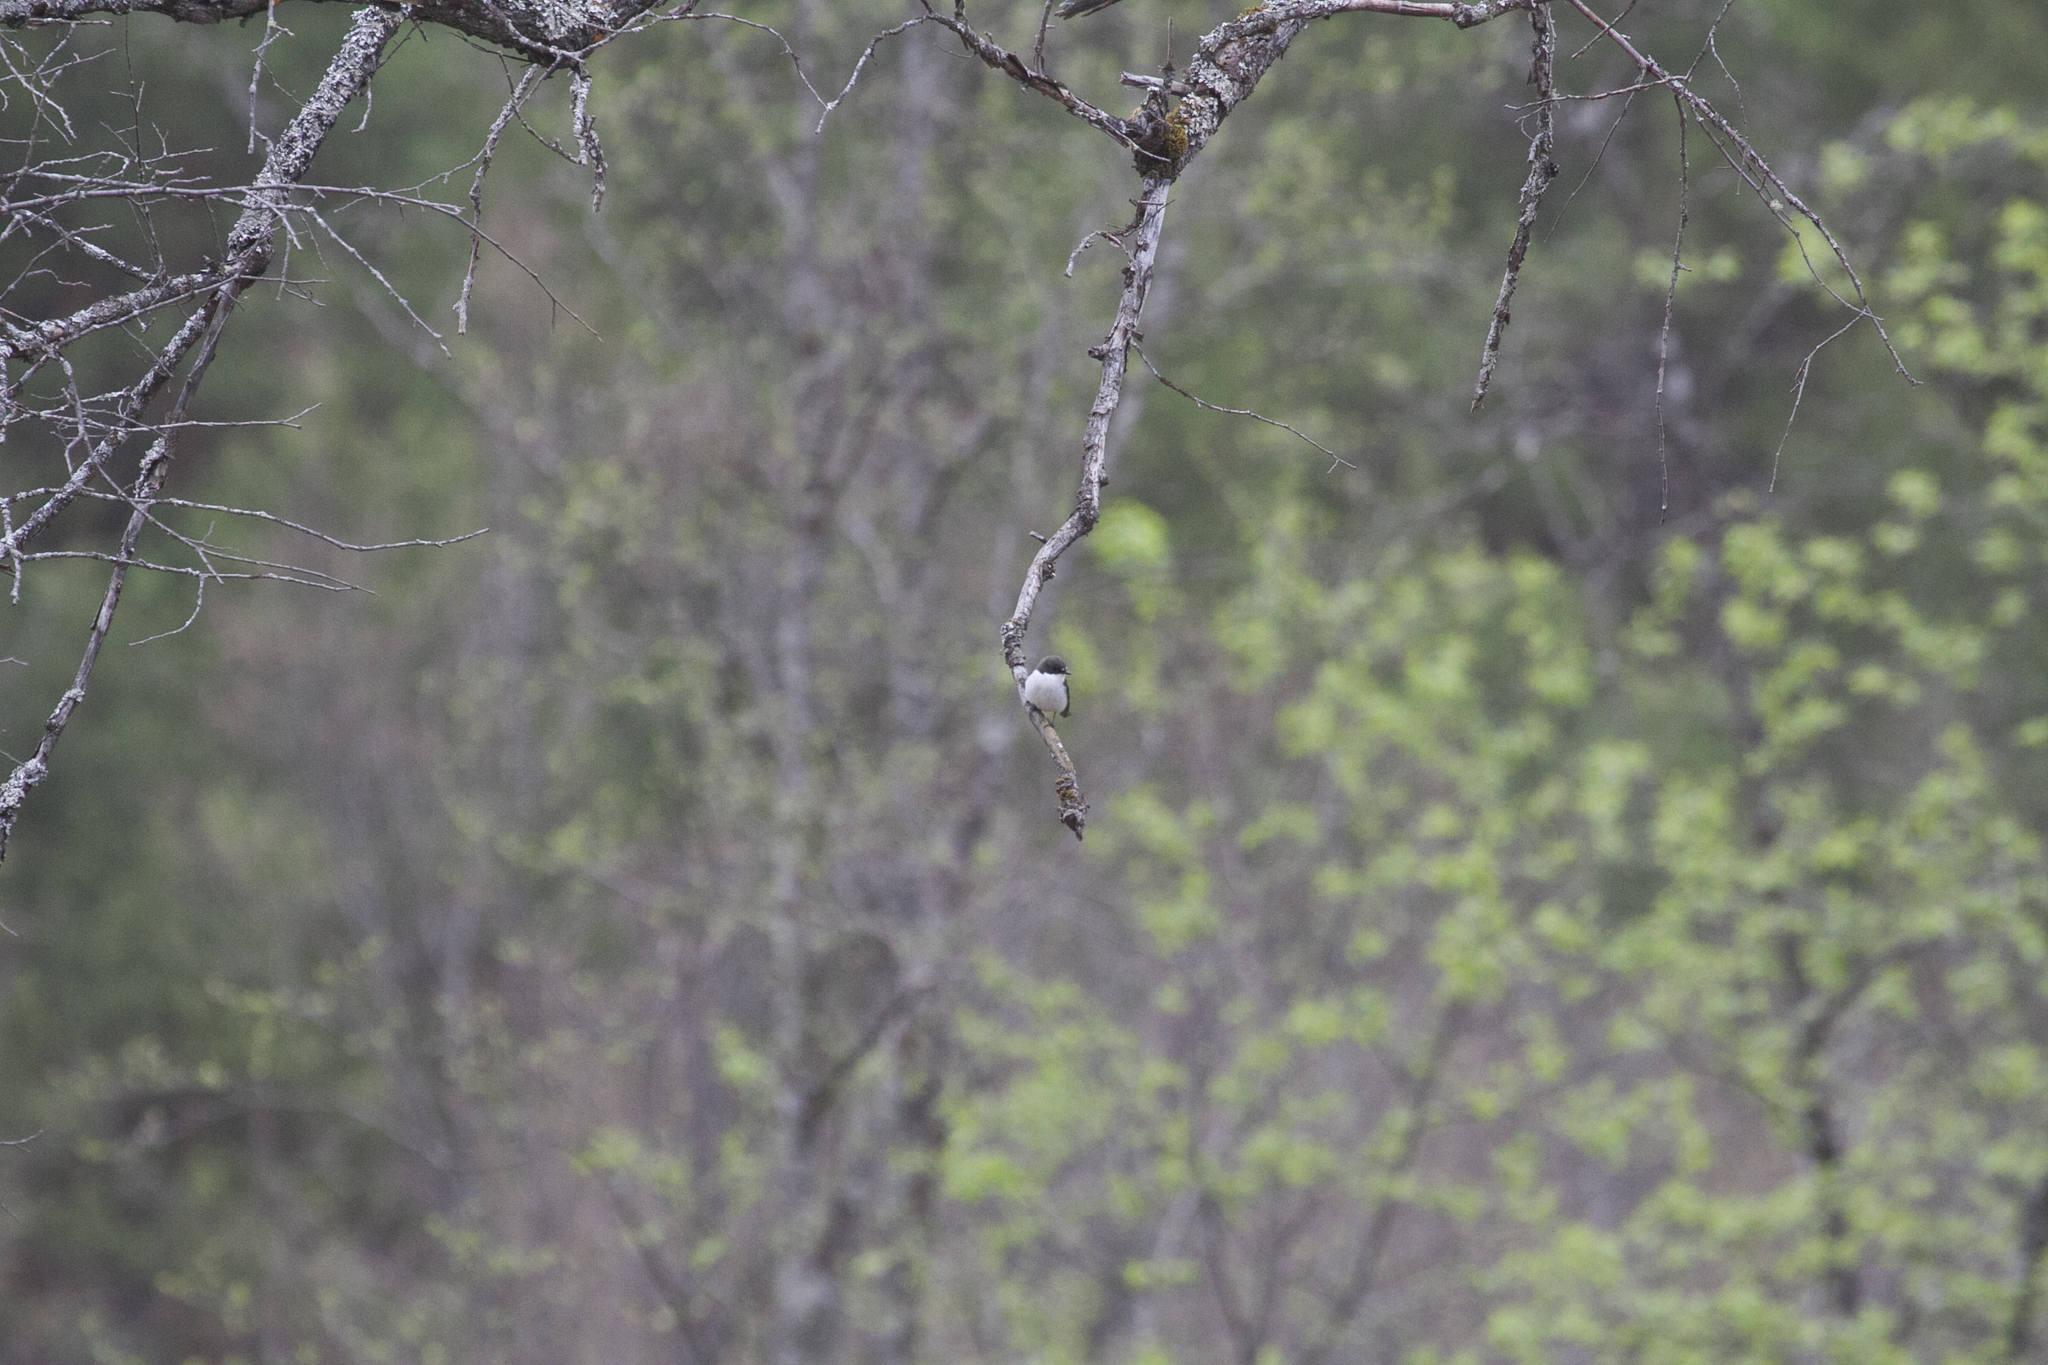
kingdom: Animalia
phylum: Chordata
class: Aves
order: Passeriformes
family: Muscicapidae
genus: Ficedula
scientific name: Ficedula hypoleuca
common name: European pied flycatcher
